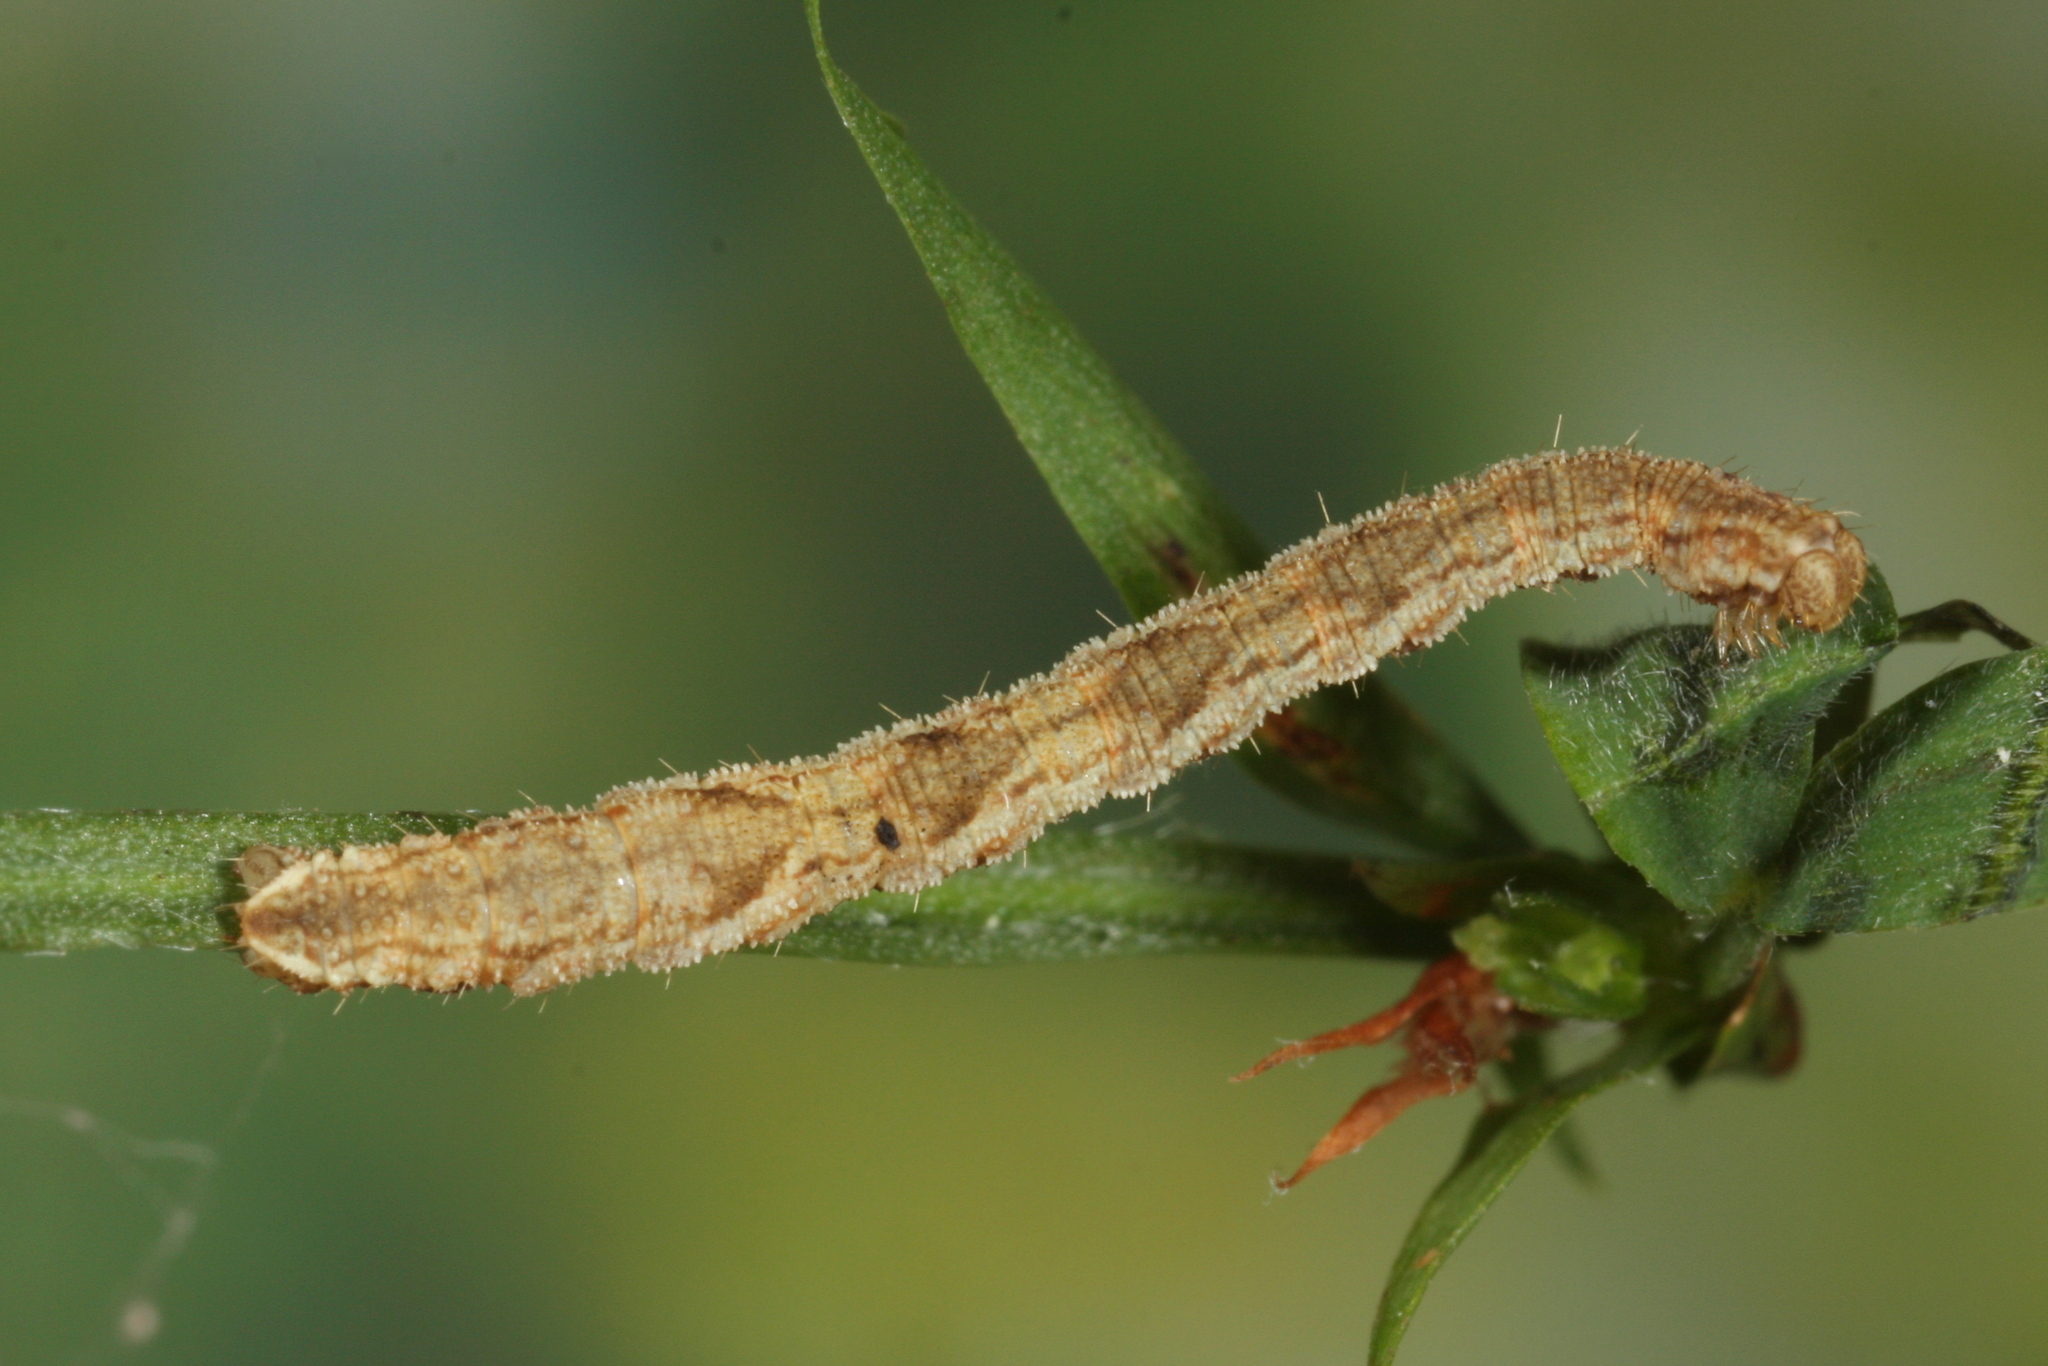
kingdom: Animalia
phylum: Arthropoda
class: Insecta
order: Lepidoptera
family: Geometridae
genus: Eupithecia
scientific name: Eupithecia subfuscata
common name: Grey pug
